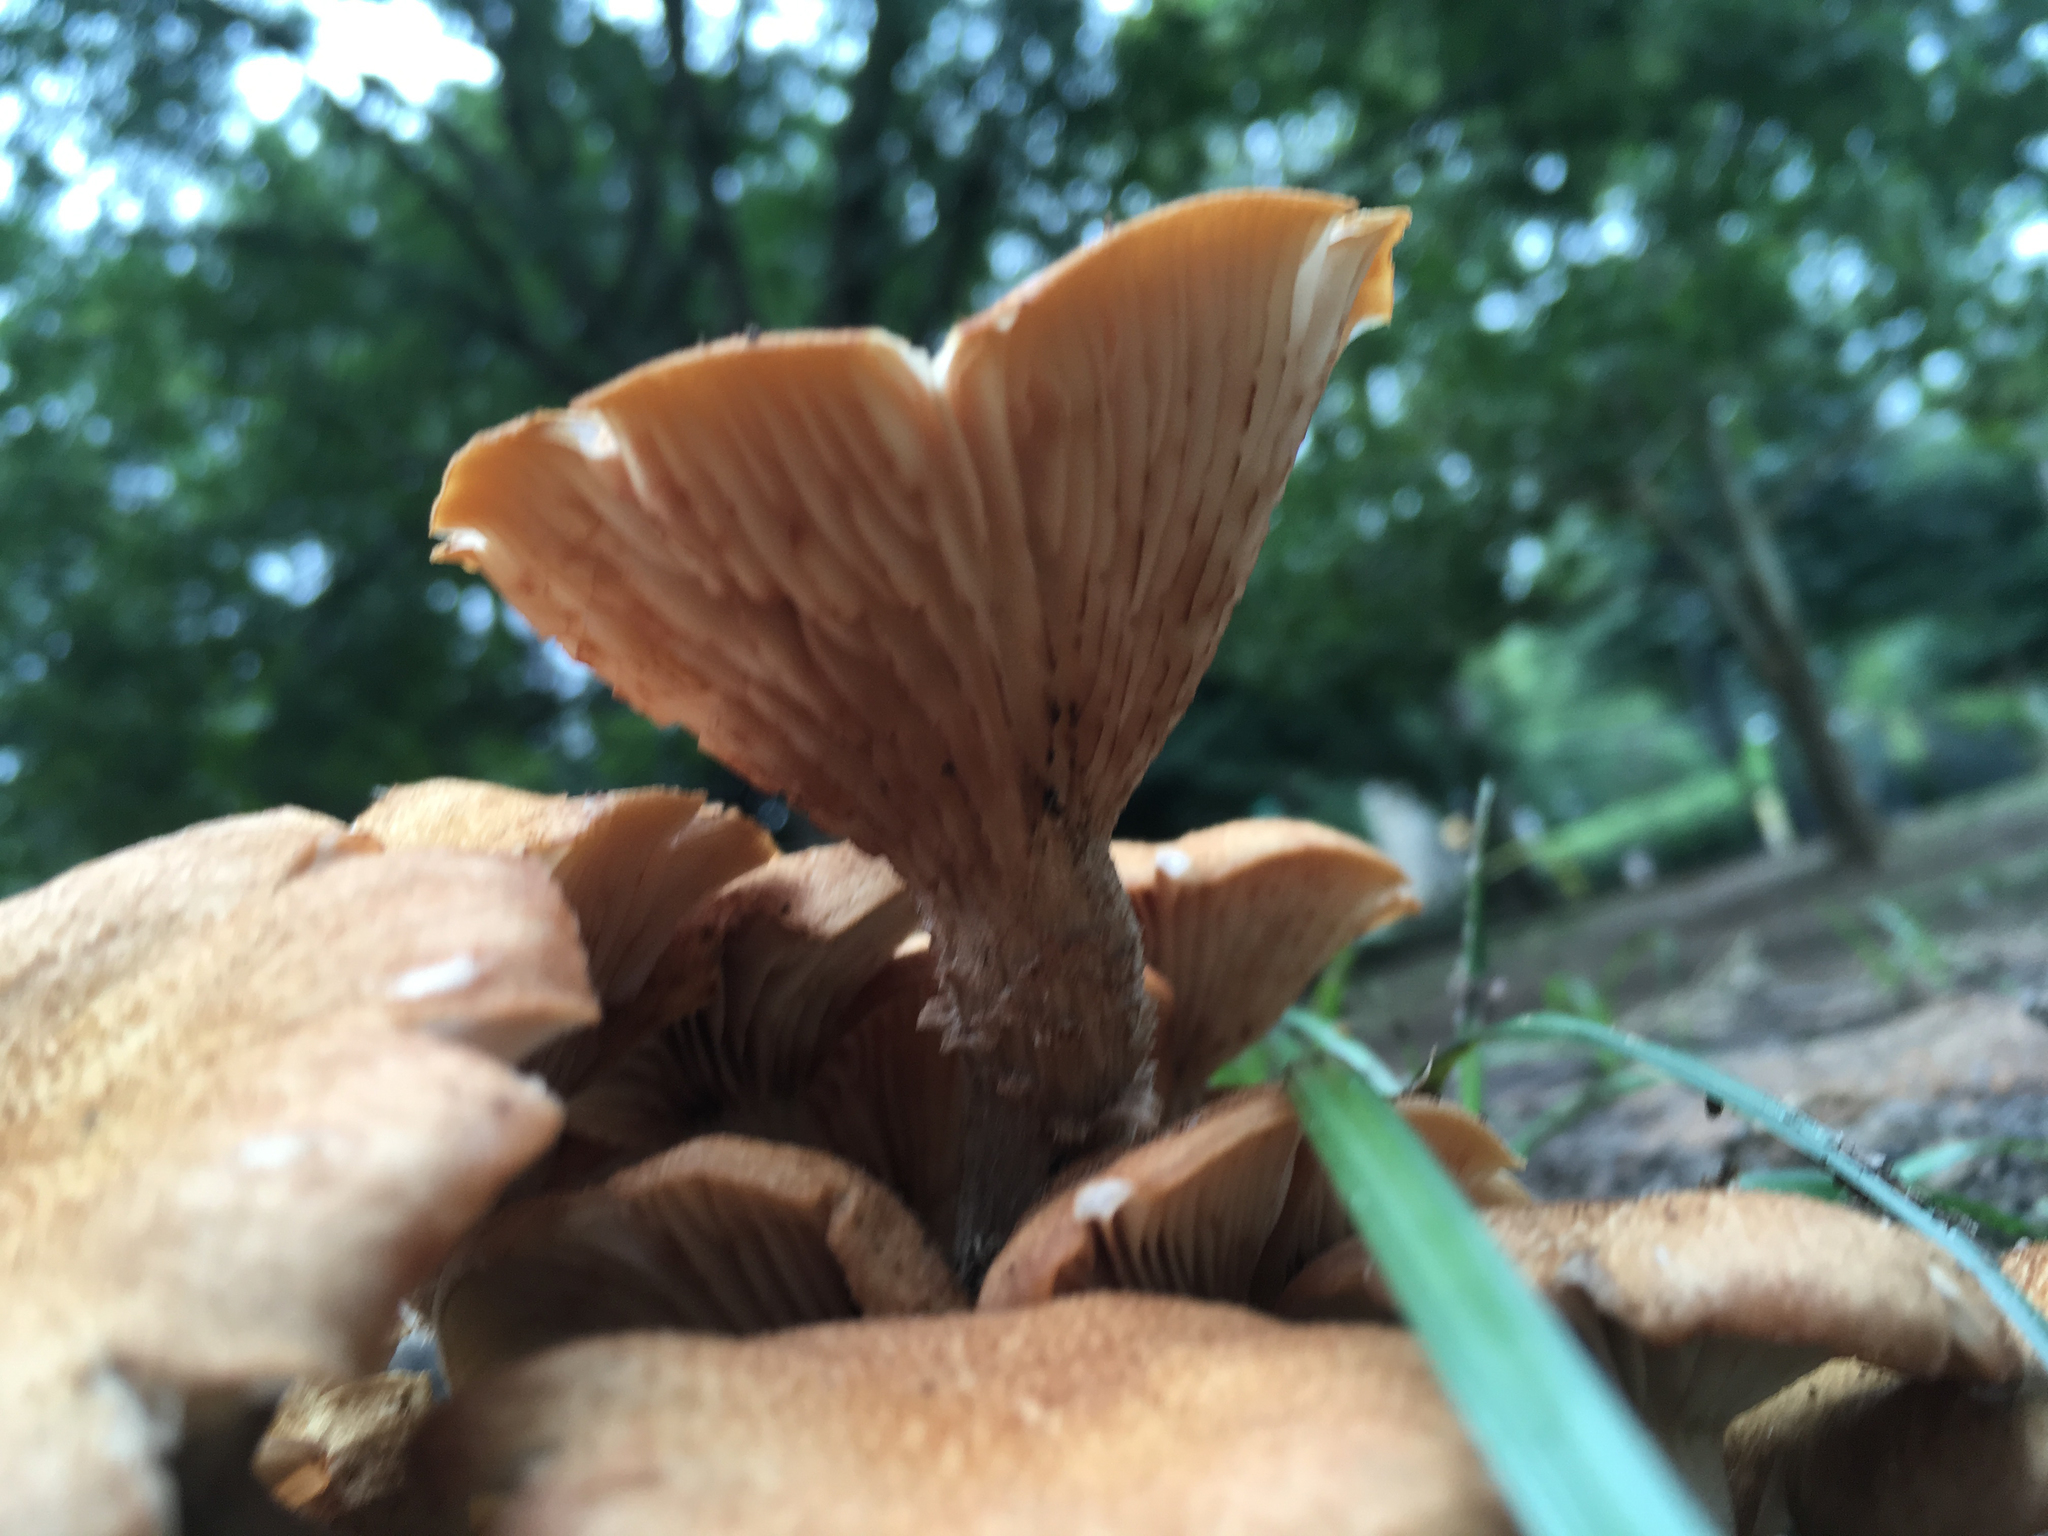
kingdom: Fungi
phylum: Basidiomycota
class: Agaricomycetes
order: Agaricales
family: Physalacriaceae
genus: Desarmillaria
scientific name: Desarmillaria caespitosa
